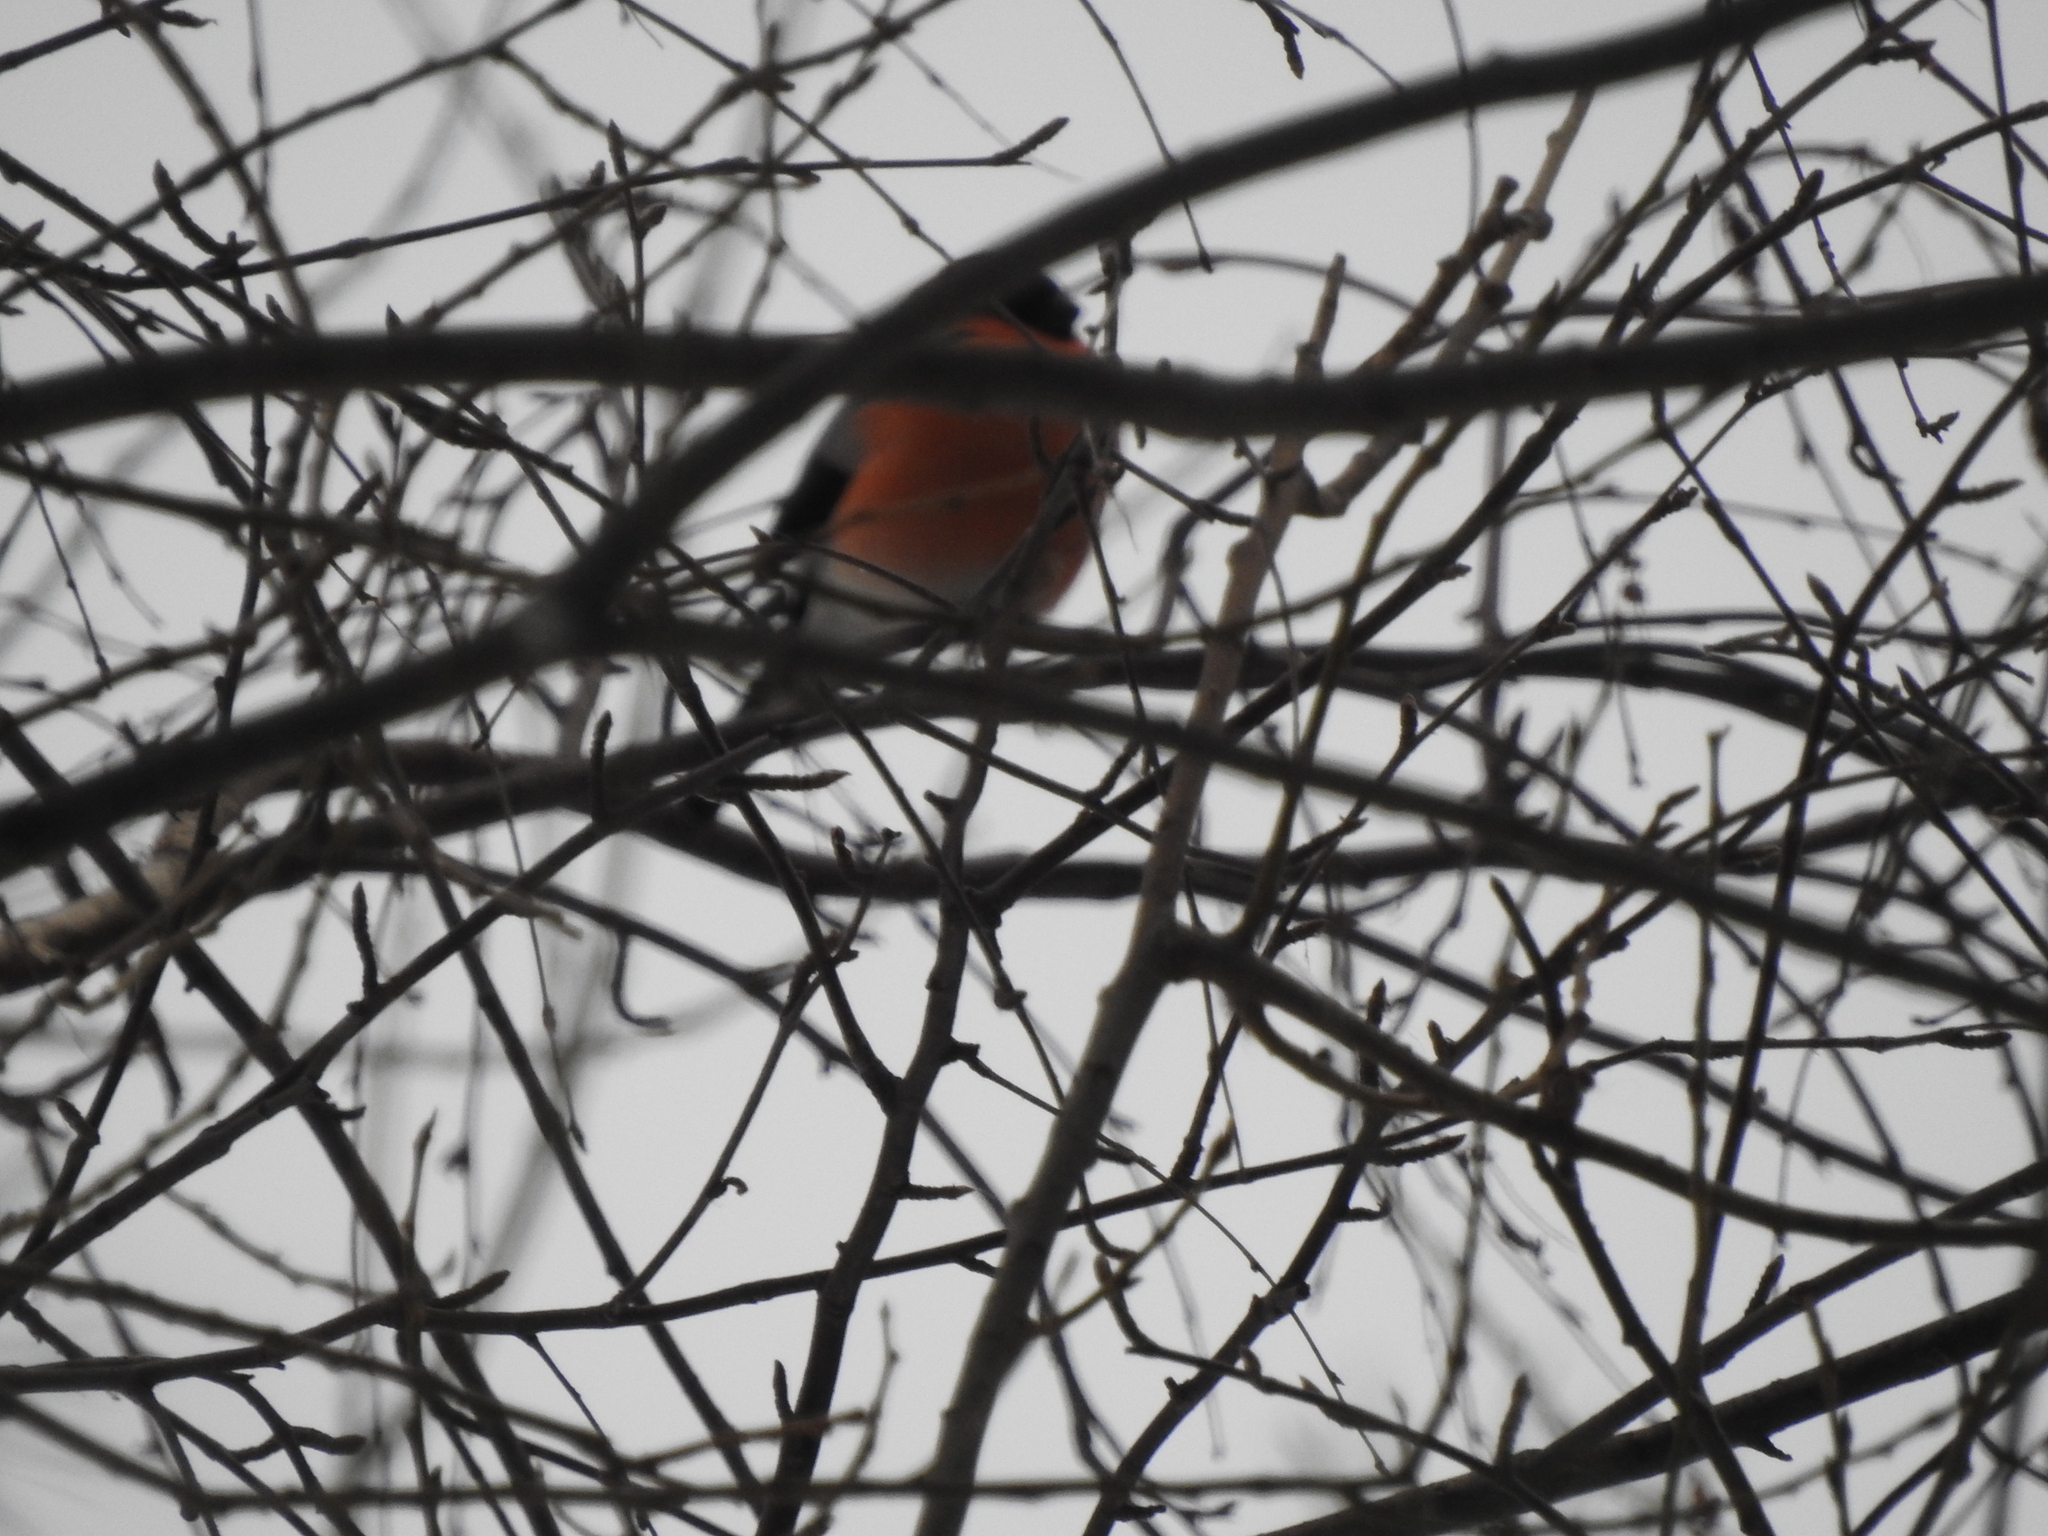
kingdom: Animalia
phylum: Chordata
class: Aves
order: Passeriformes
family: Fringillidae
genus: Pyrrhula
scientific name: Pyrrhula pyrrhula
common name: Eurasian bullfinch
